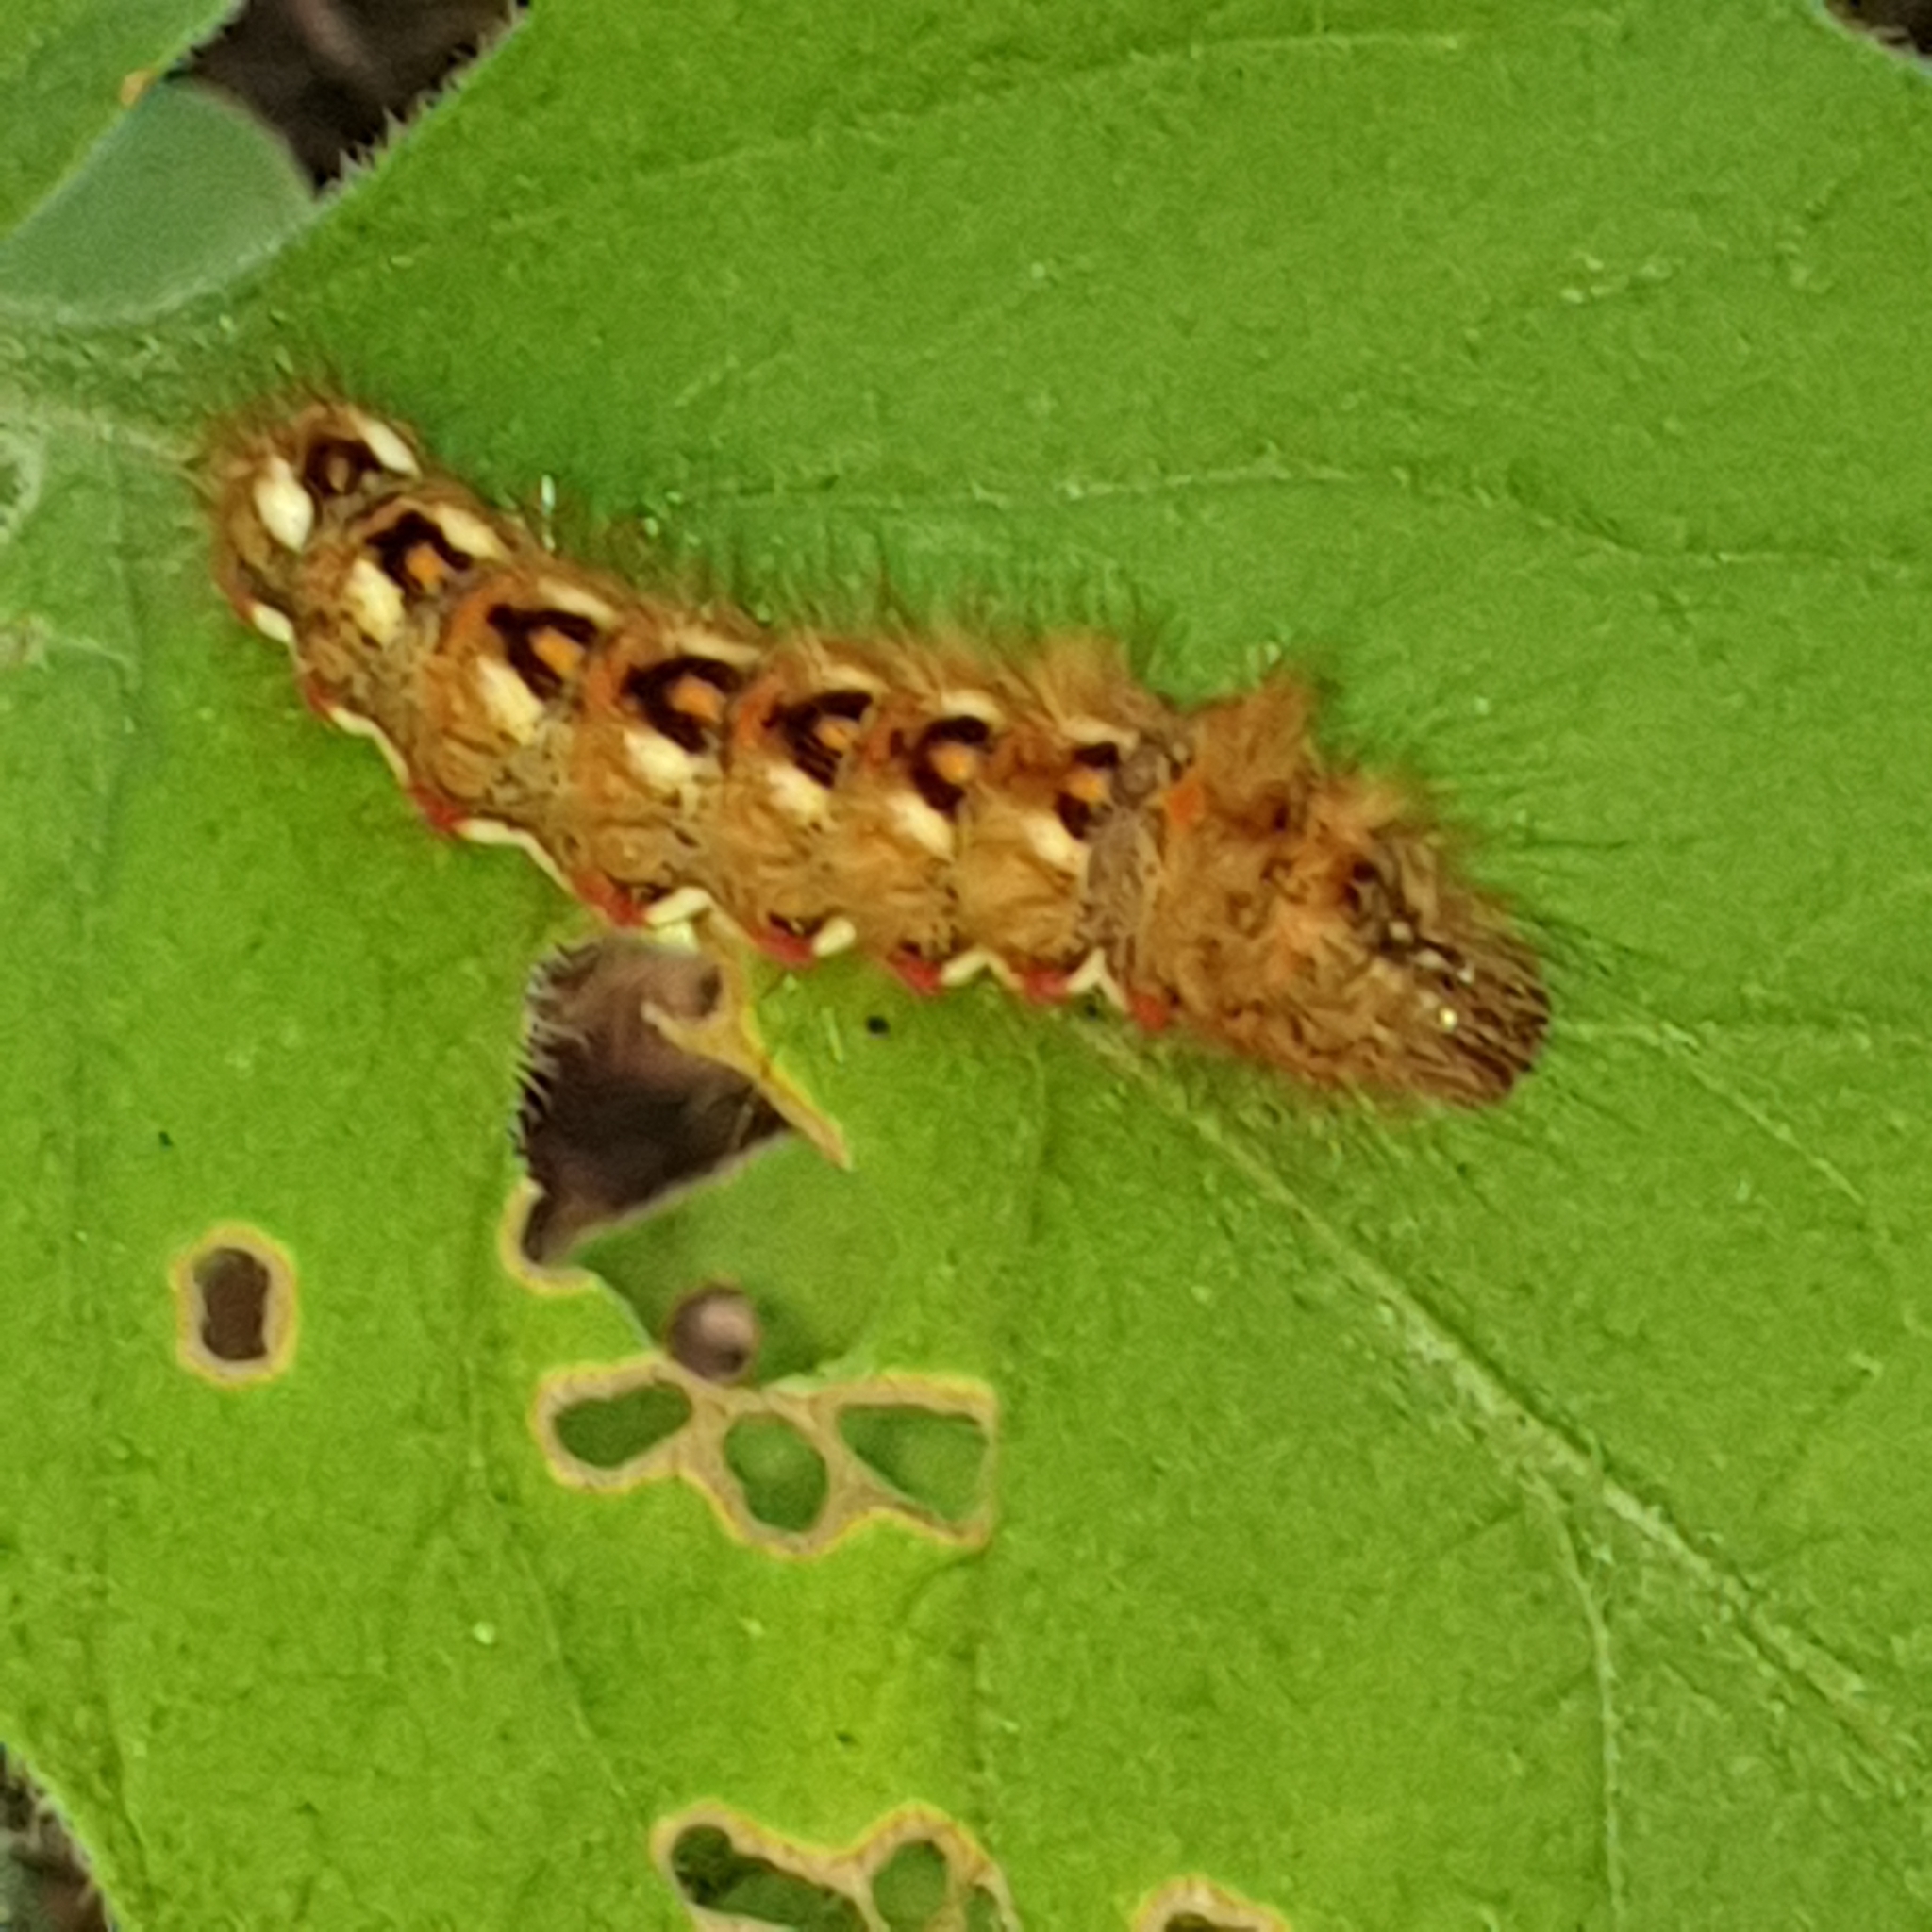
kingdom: Animalia
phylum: Arthropoda
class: Insecta
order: Lepidoptera
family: Noctuidae
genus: Acronicta
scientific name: Acronicta rumicis
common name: Knot grass
